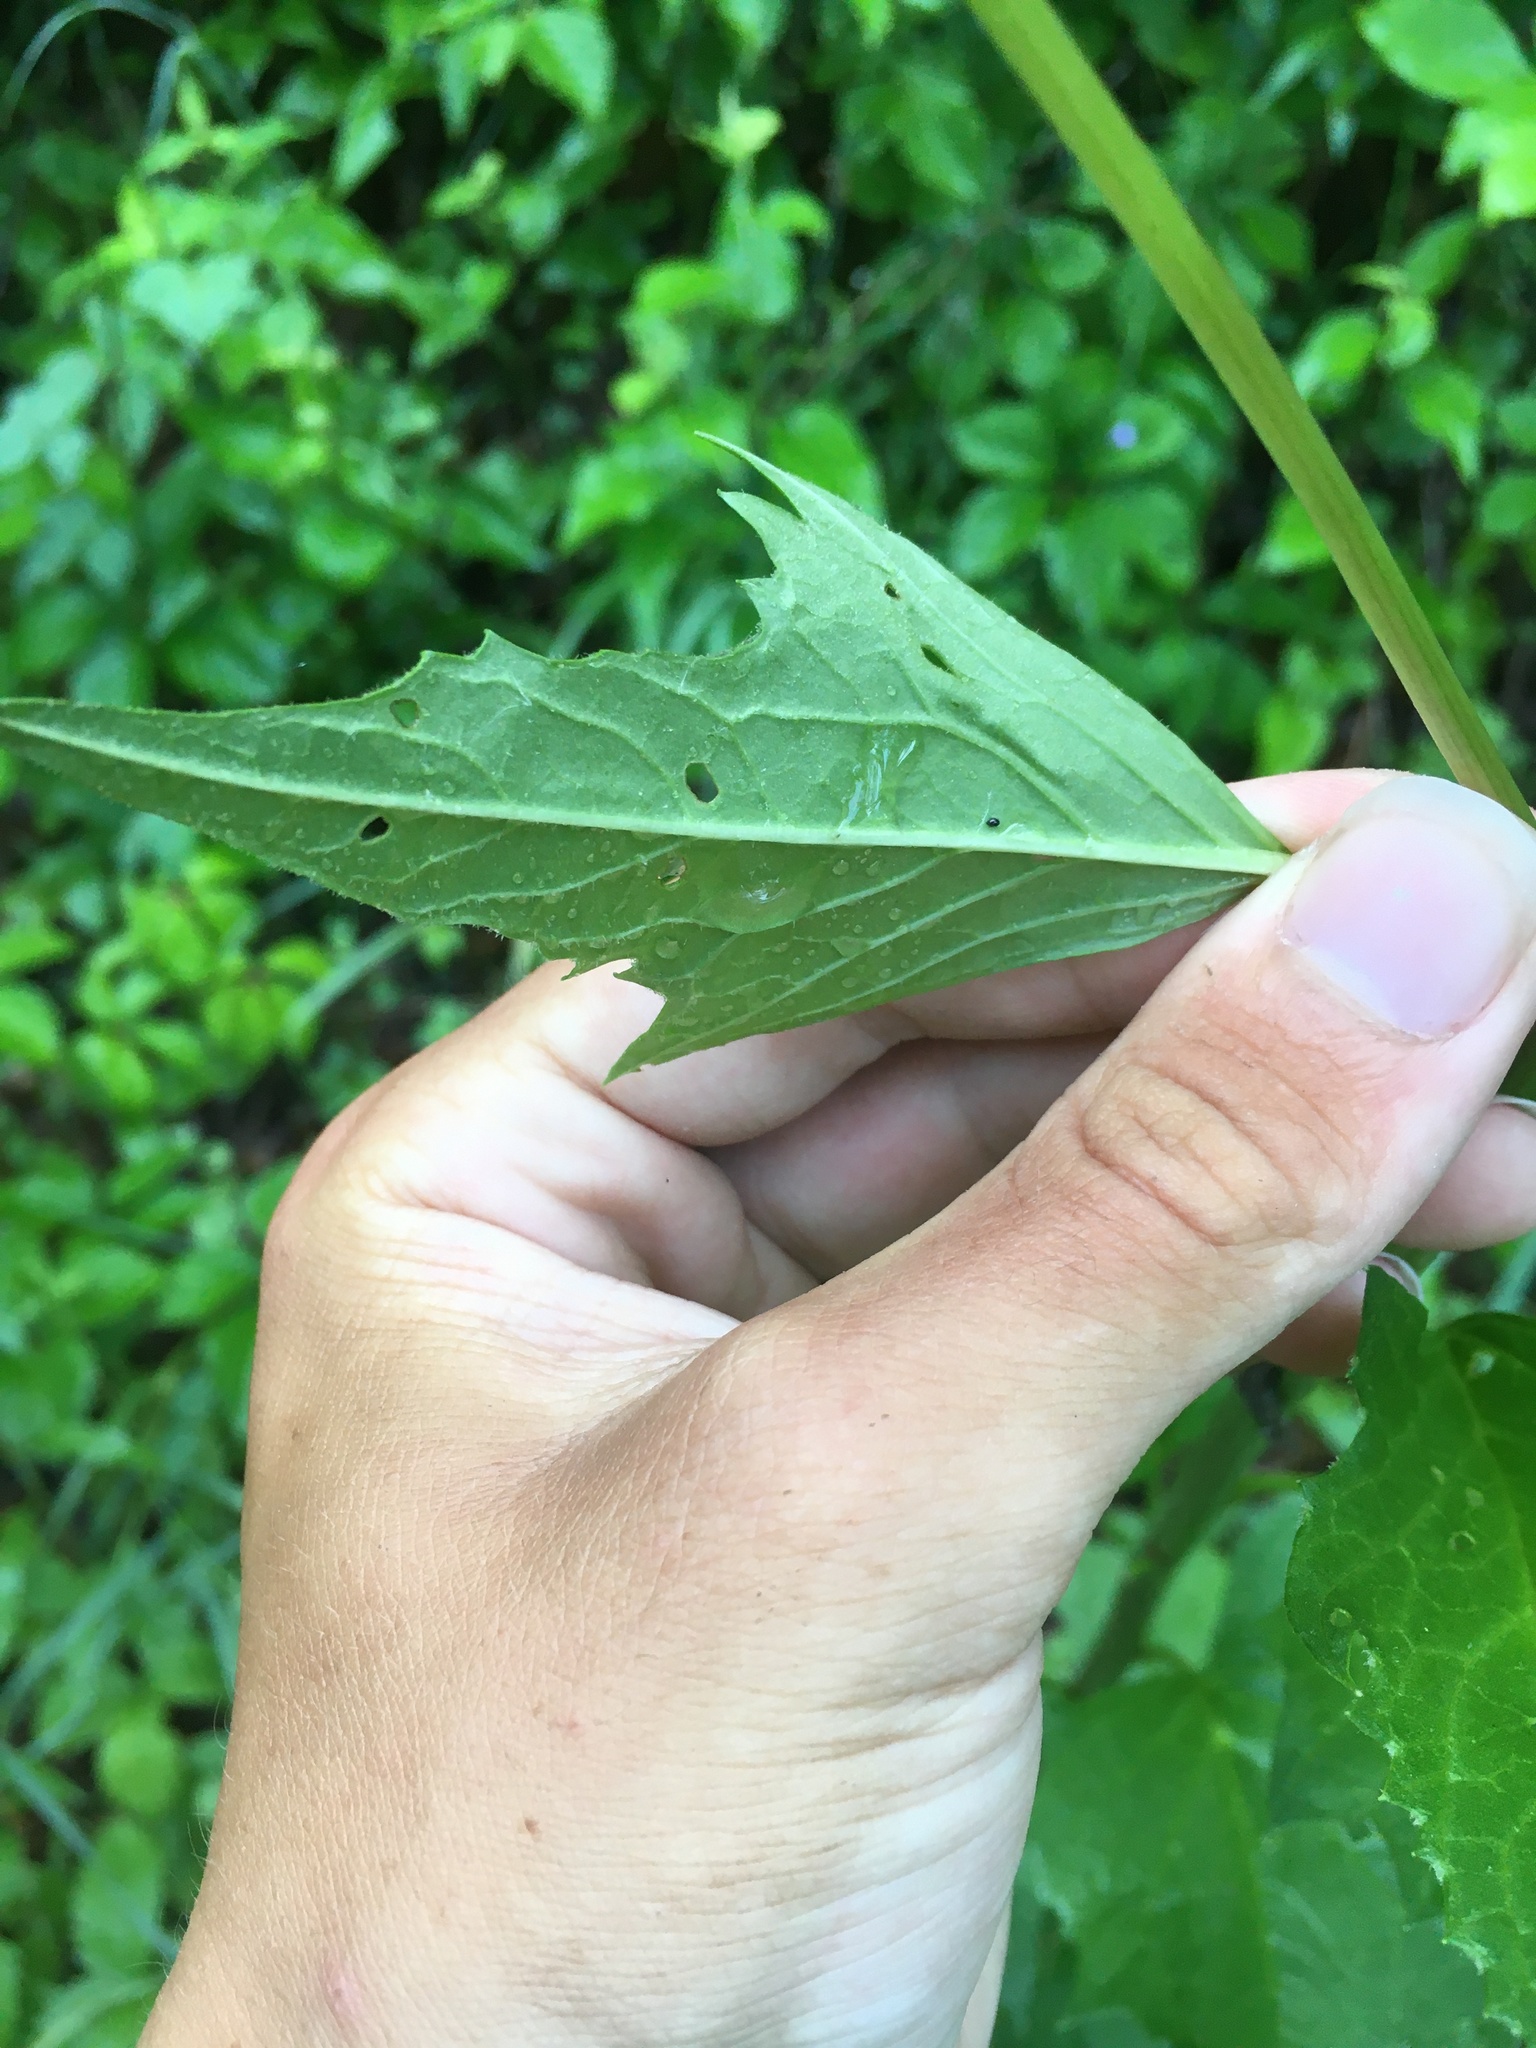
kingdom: Animalia
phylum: Arthropoda
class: Insecta
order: Lepidoptera
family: Gracillariidae
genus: Phyllocnistis
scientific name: Phyllocnistis insignis
